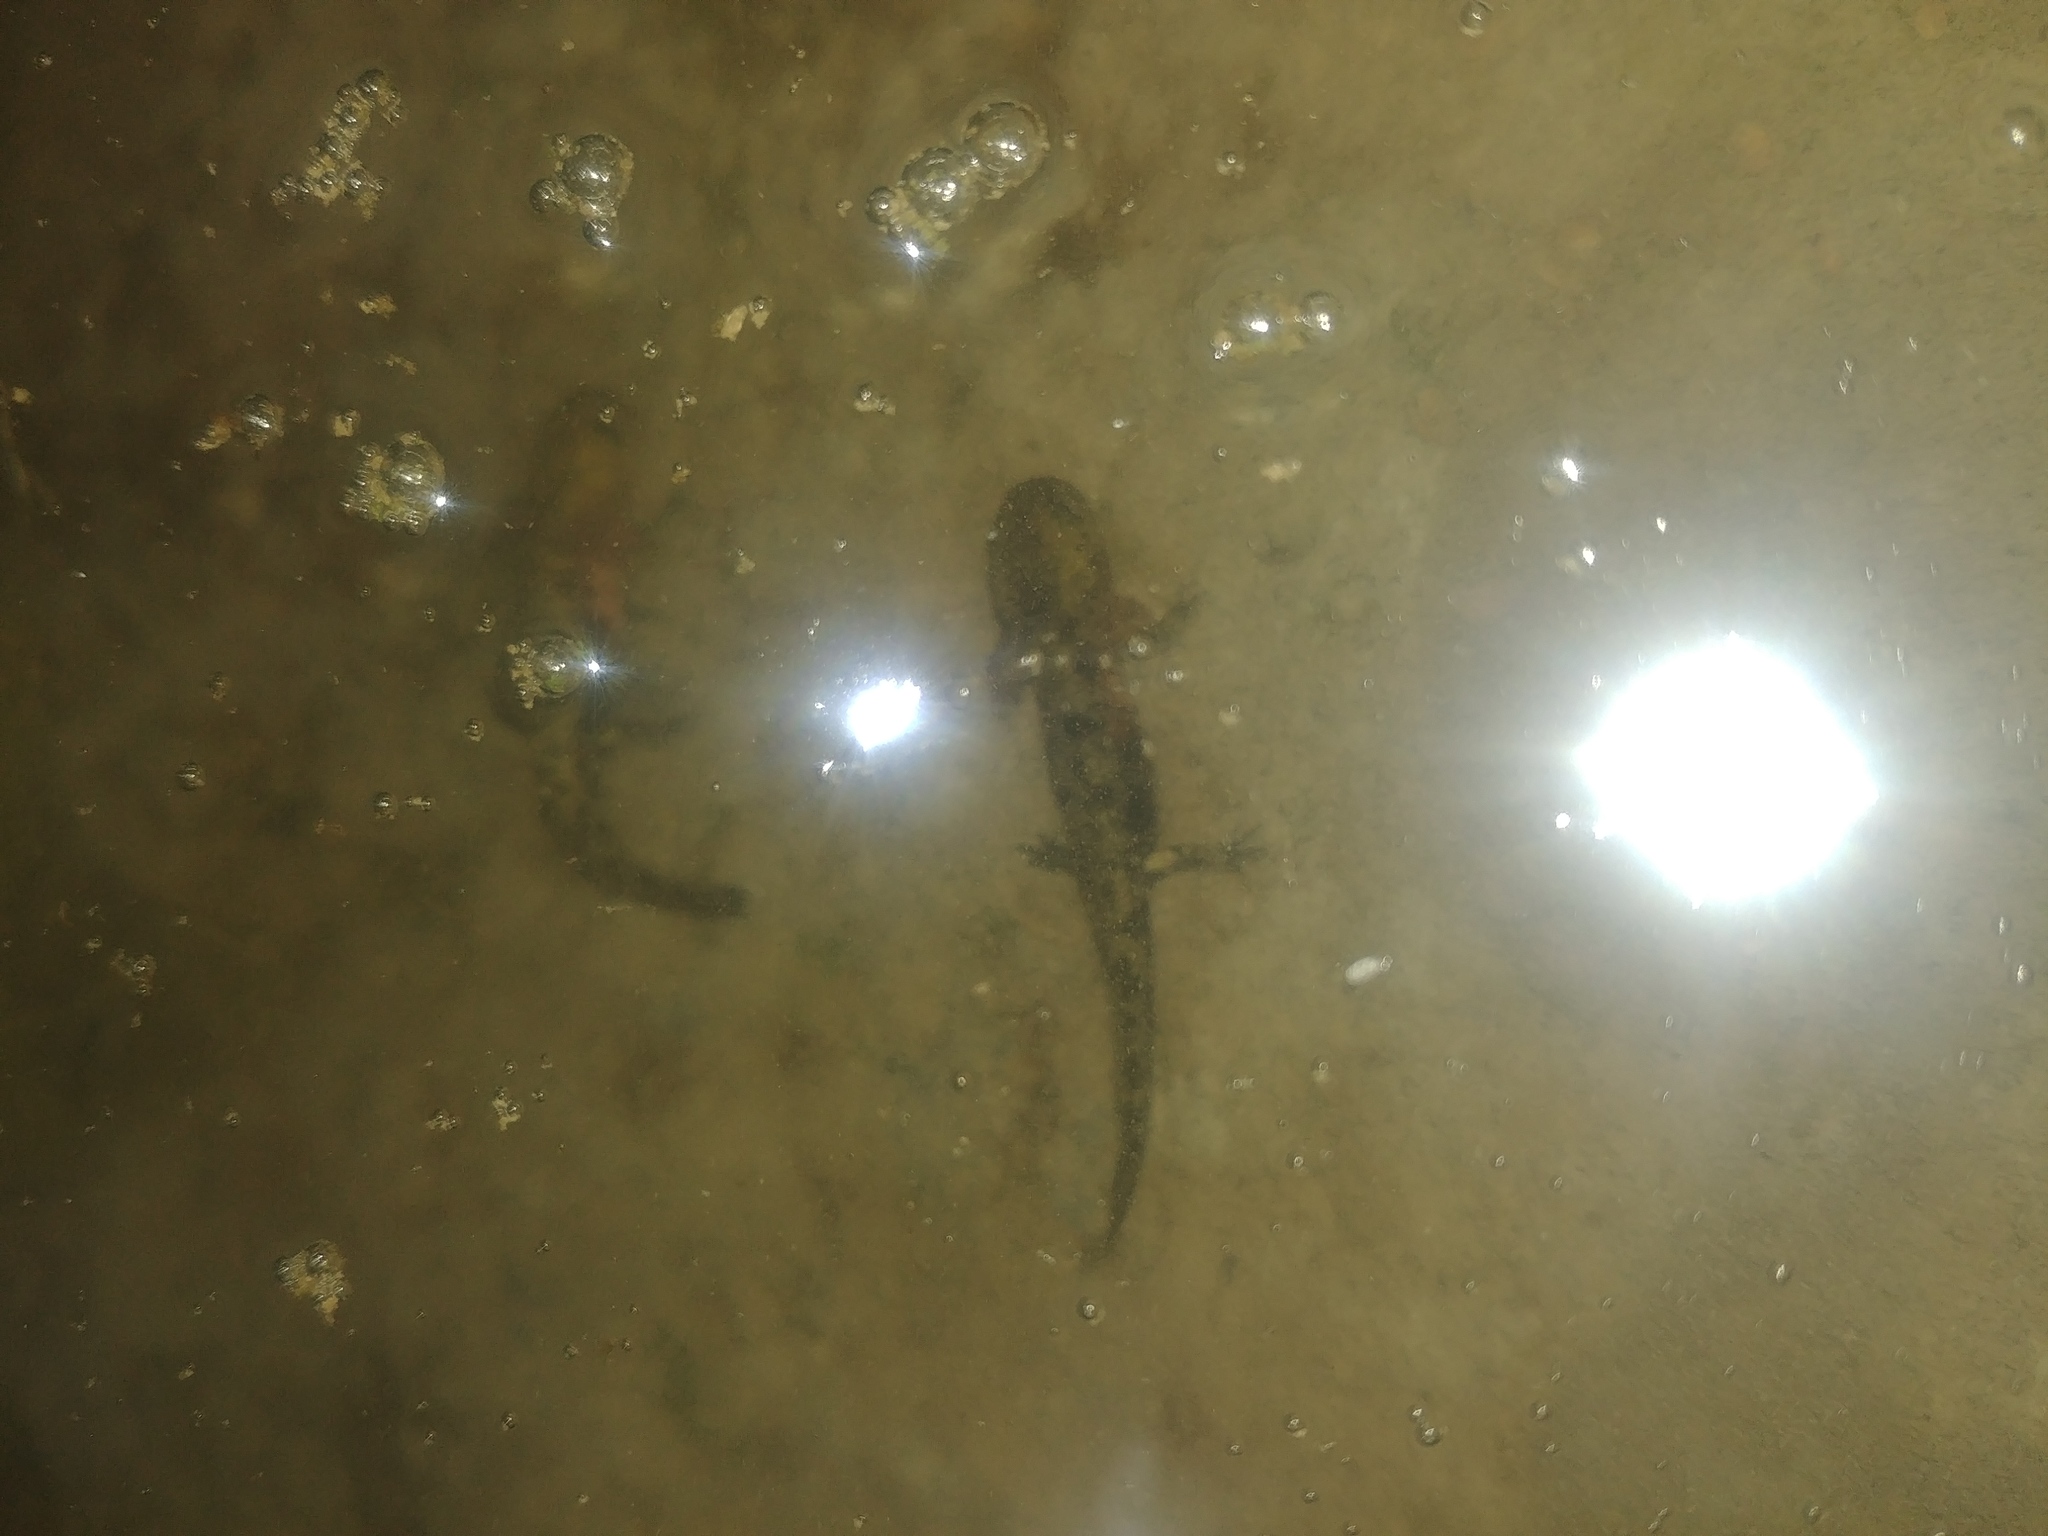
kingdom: Animalia
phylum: Chordata
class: Amphibia
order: Caudata
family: Salamandridae
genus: Salamandra
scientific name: Salamandra salamandra
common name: Fire salamander
